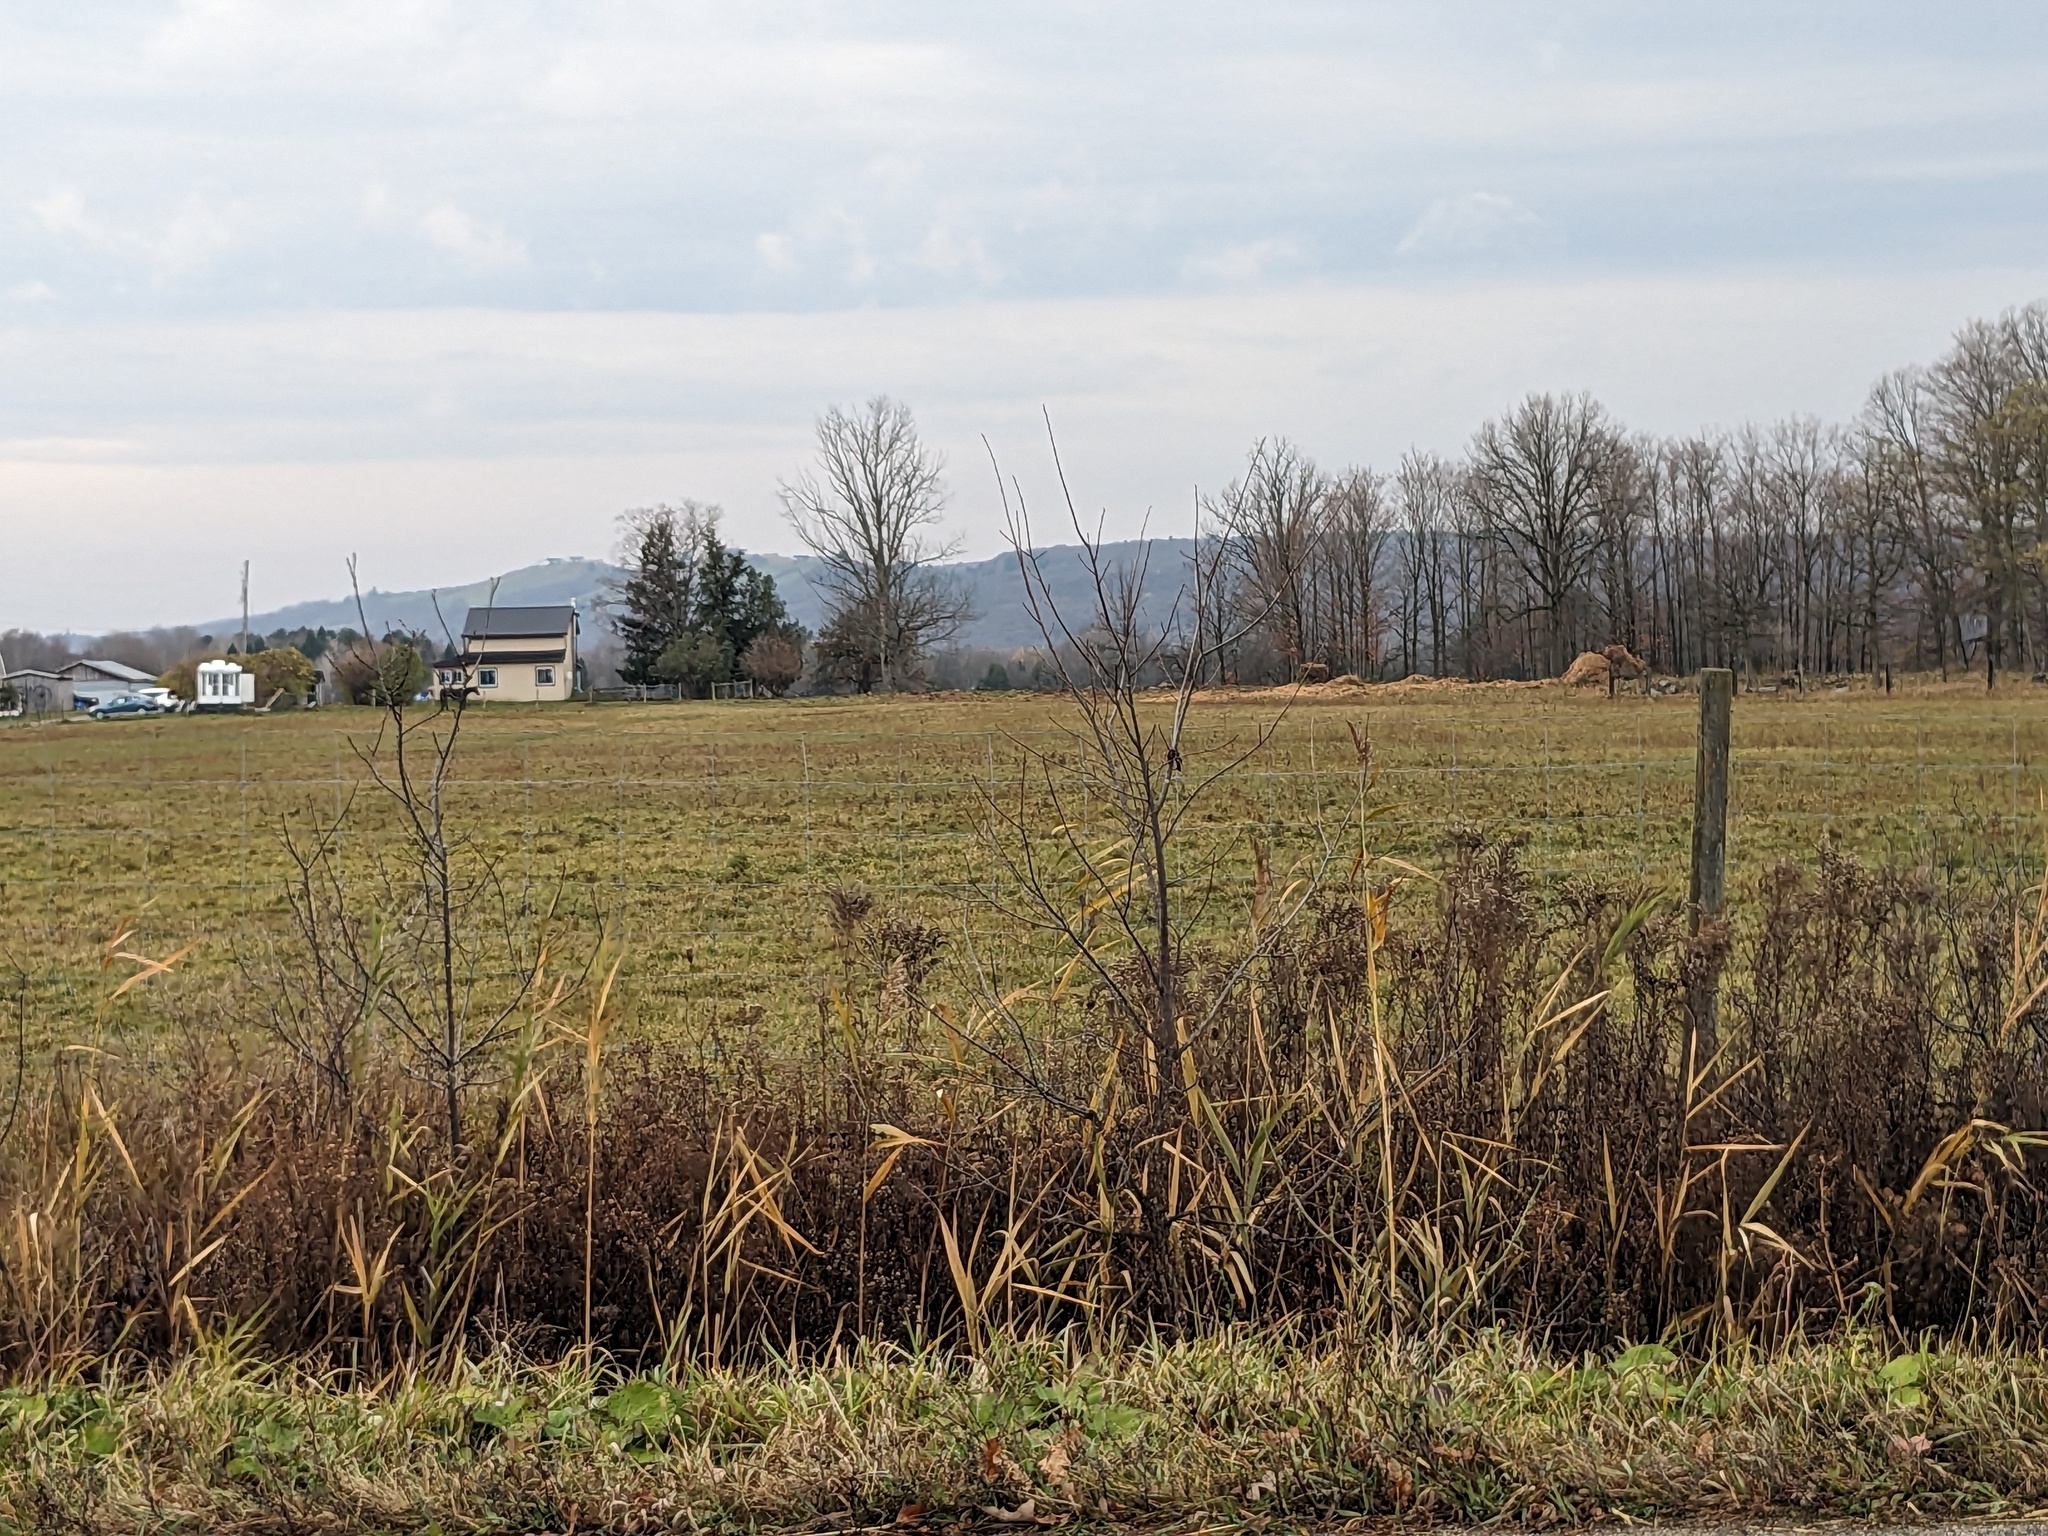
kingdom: Plantae
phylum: Tracheophyta
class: Liliopsida
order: Poales
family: Poaceae
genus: Phragmites
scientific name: Phragmites australis
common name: Common reed
